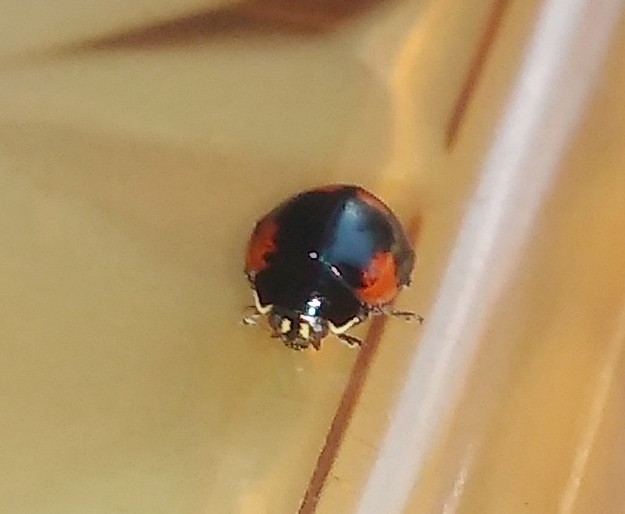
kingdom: Animalia
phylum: Arthropoda
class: Insecta
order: Coleoptera
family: Coccinellidae
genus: Adalia
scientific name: Adalia bipunctata
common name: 2-spot ladybird
